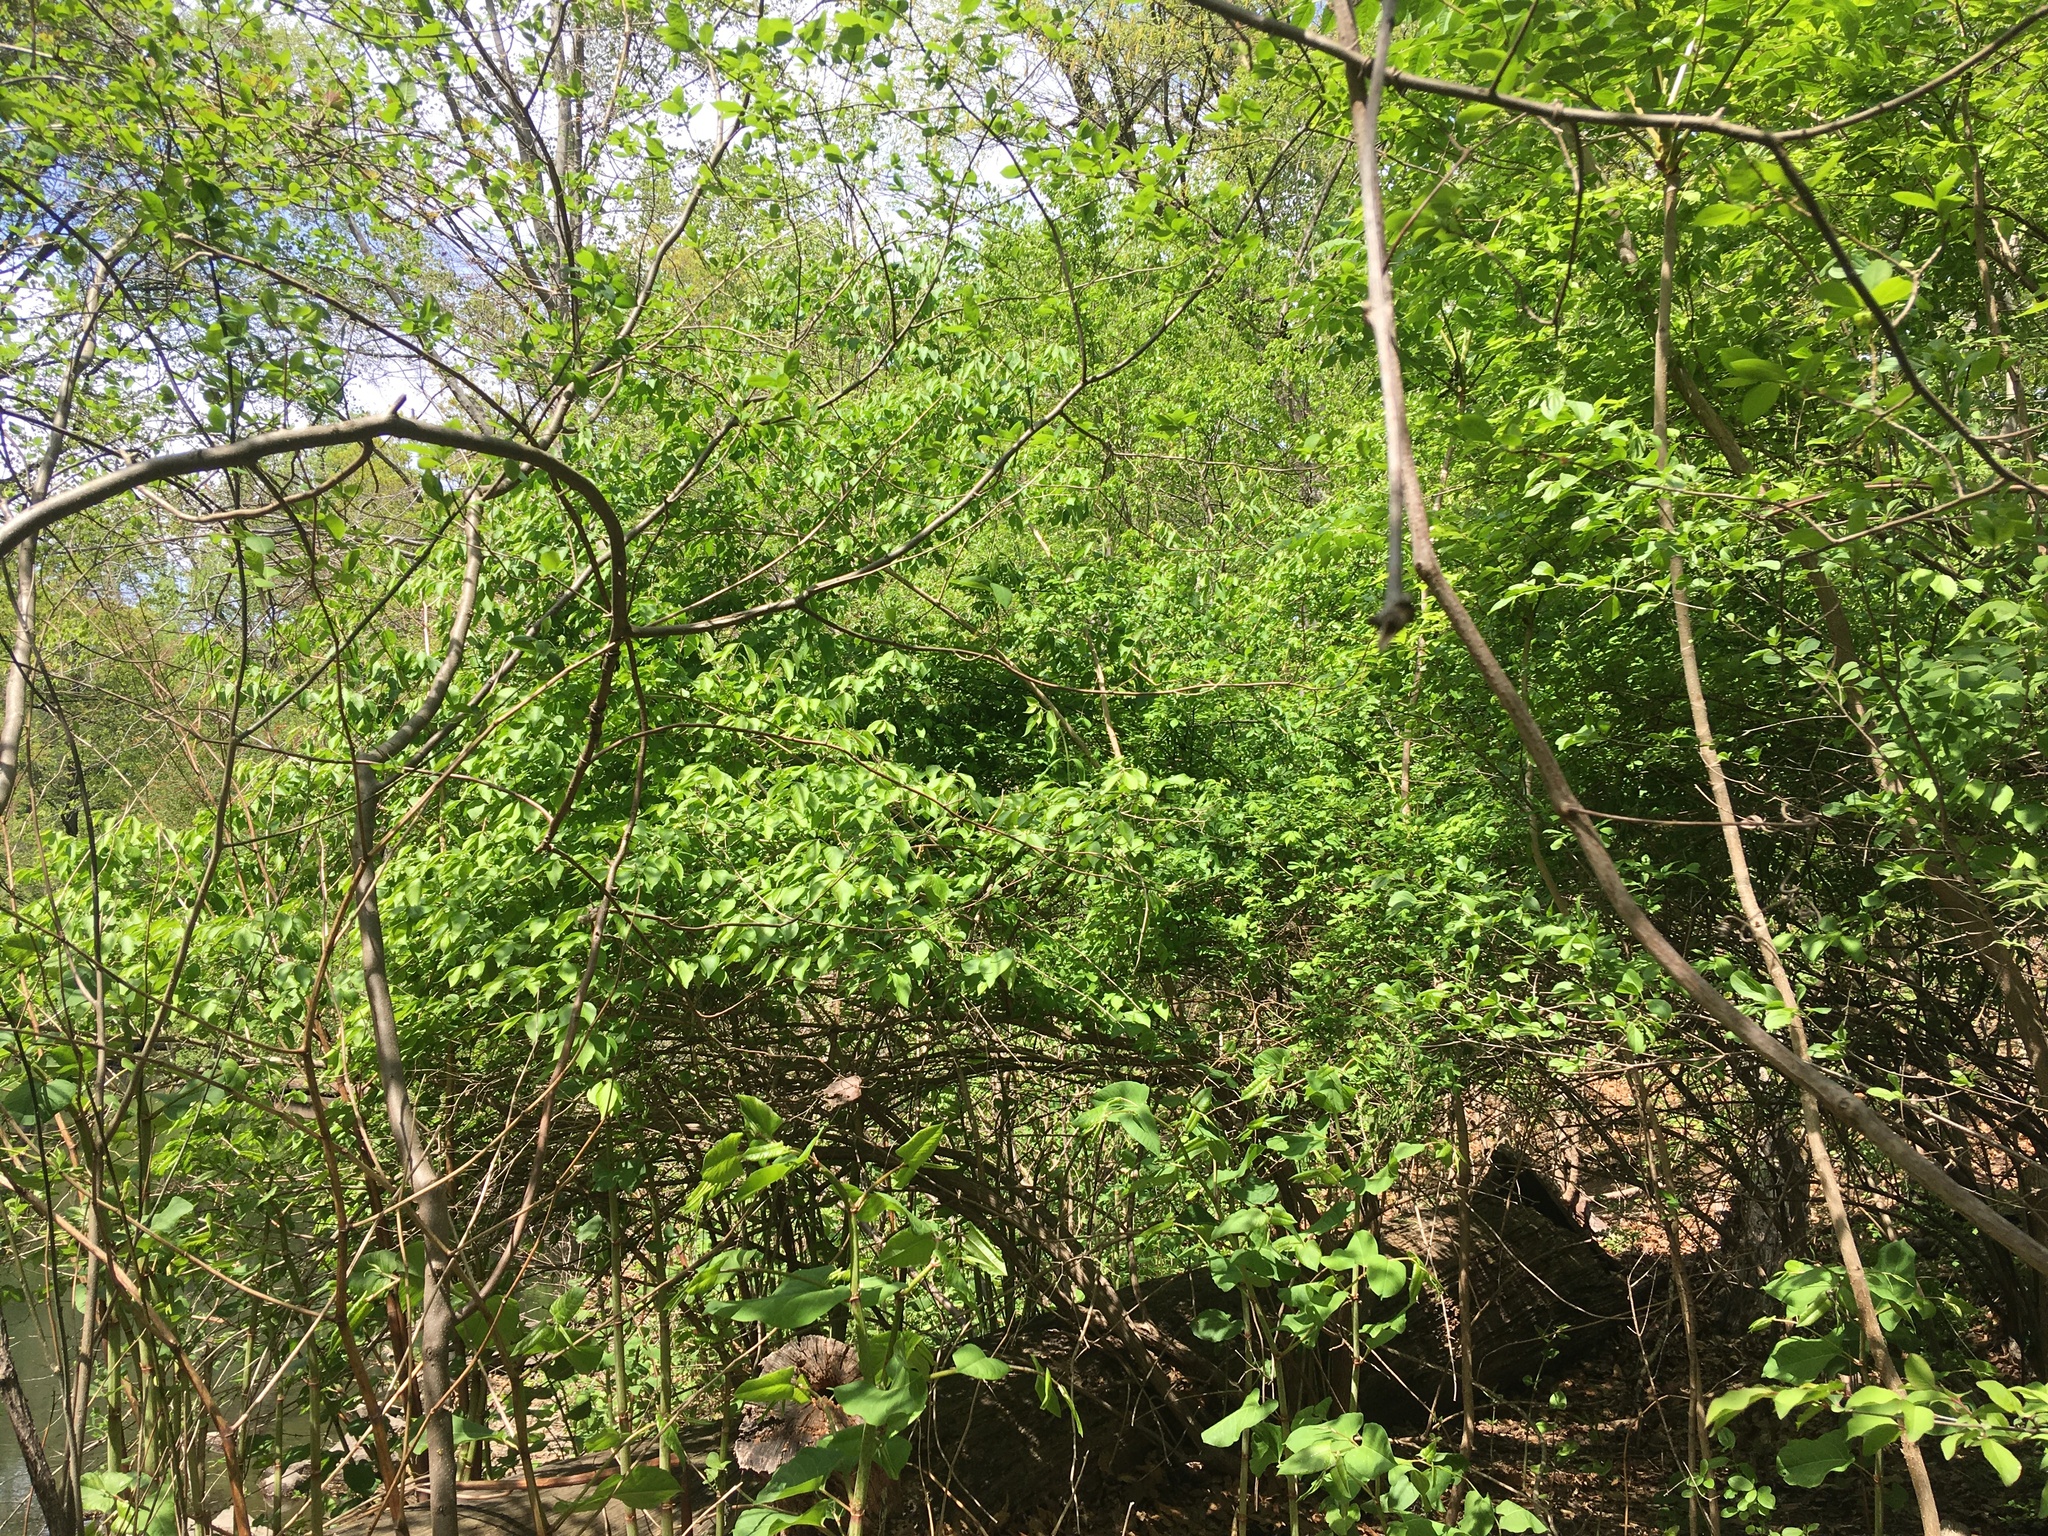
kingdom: Plantae
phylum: Tracheophyta
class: Magnoliopsida
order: Dipsacales
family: Caprifoliaceae
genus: Lonicera
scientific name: Lonicera maackii
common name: Amur honeysuckle
